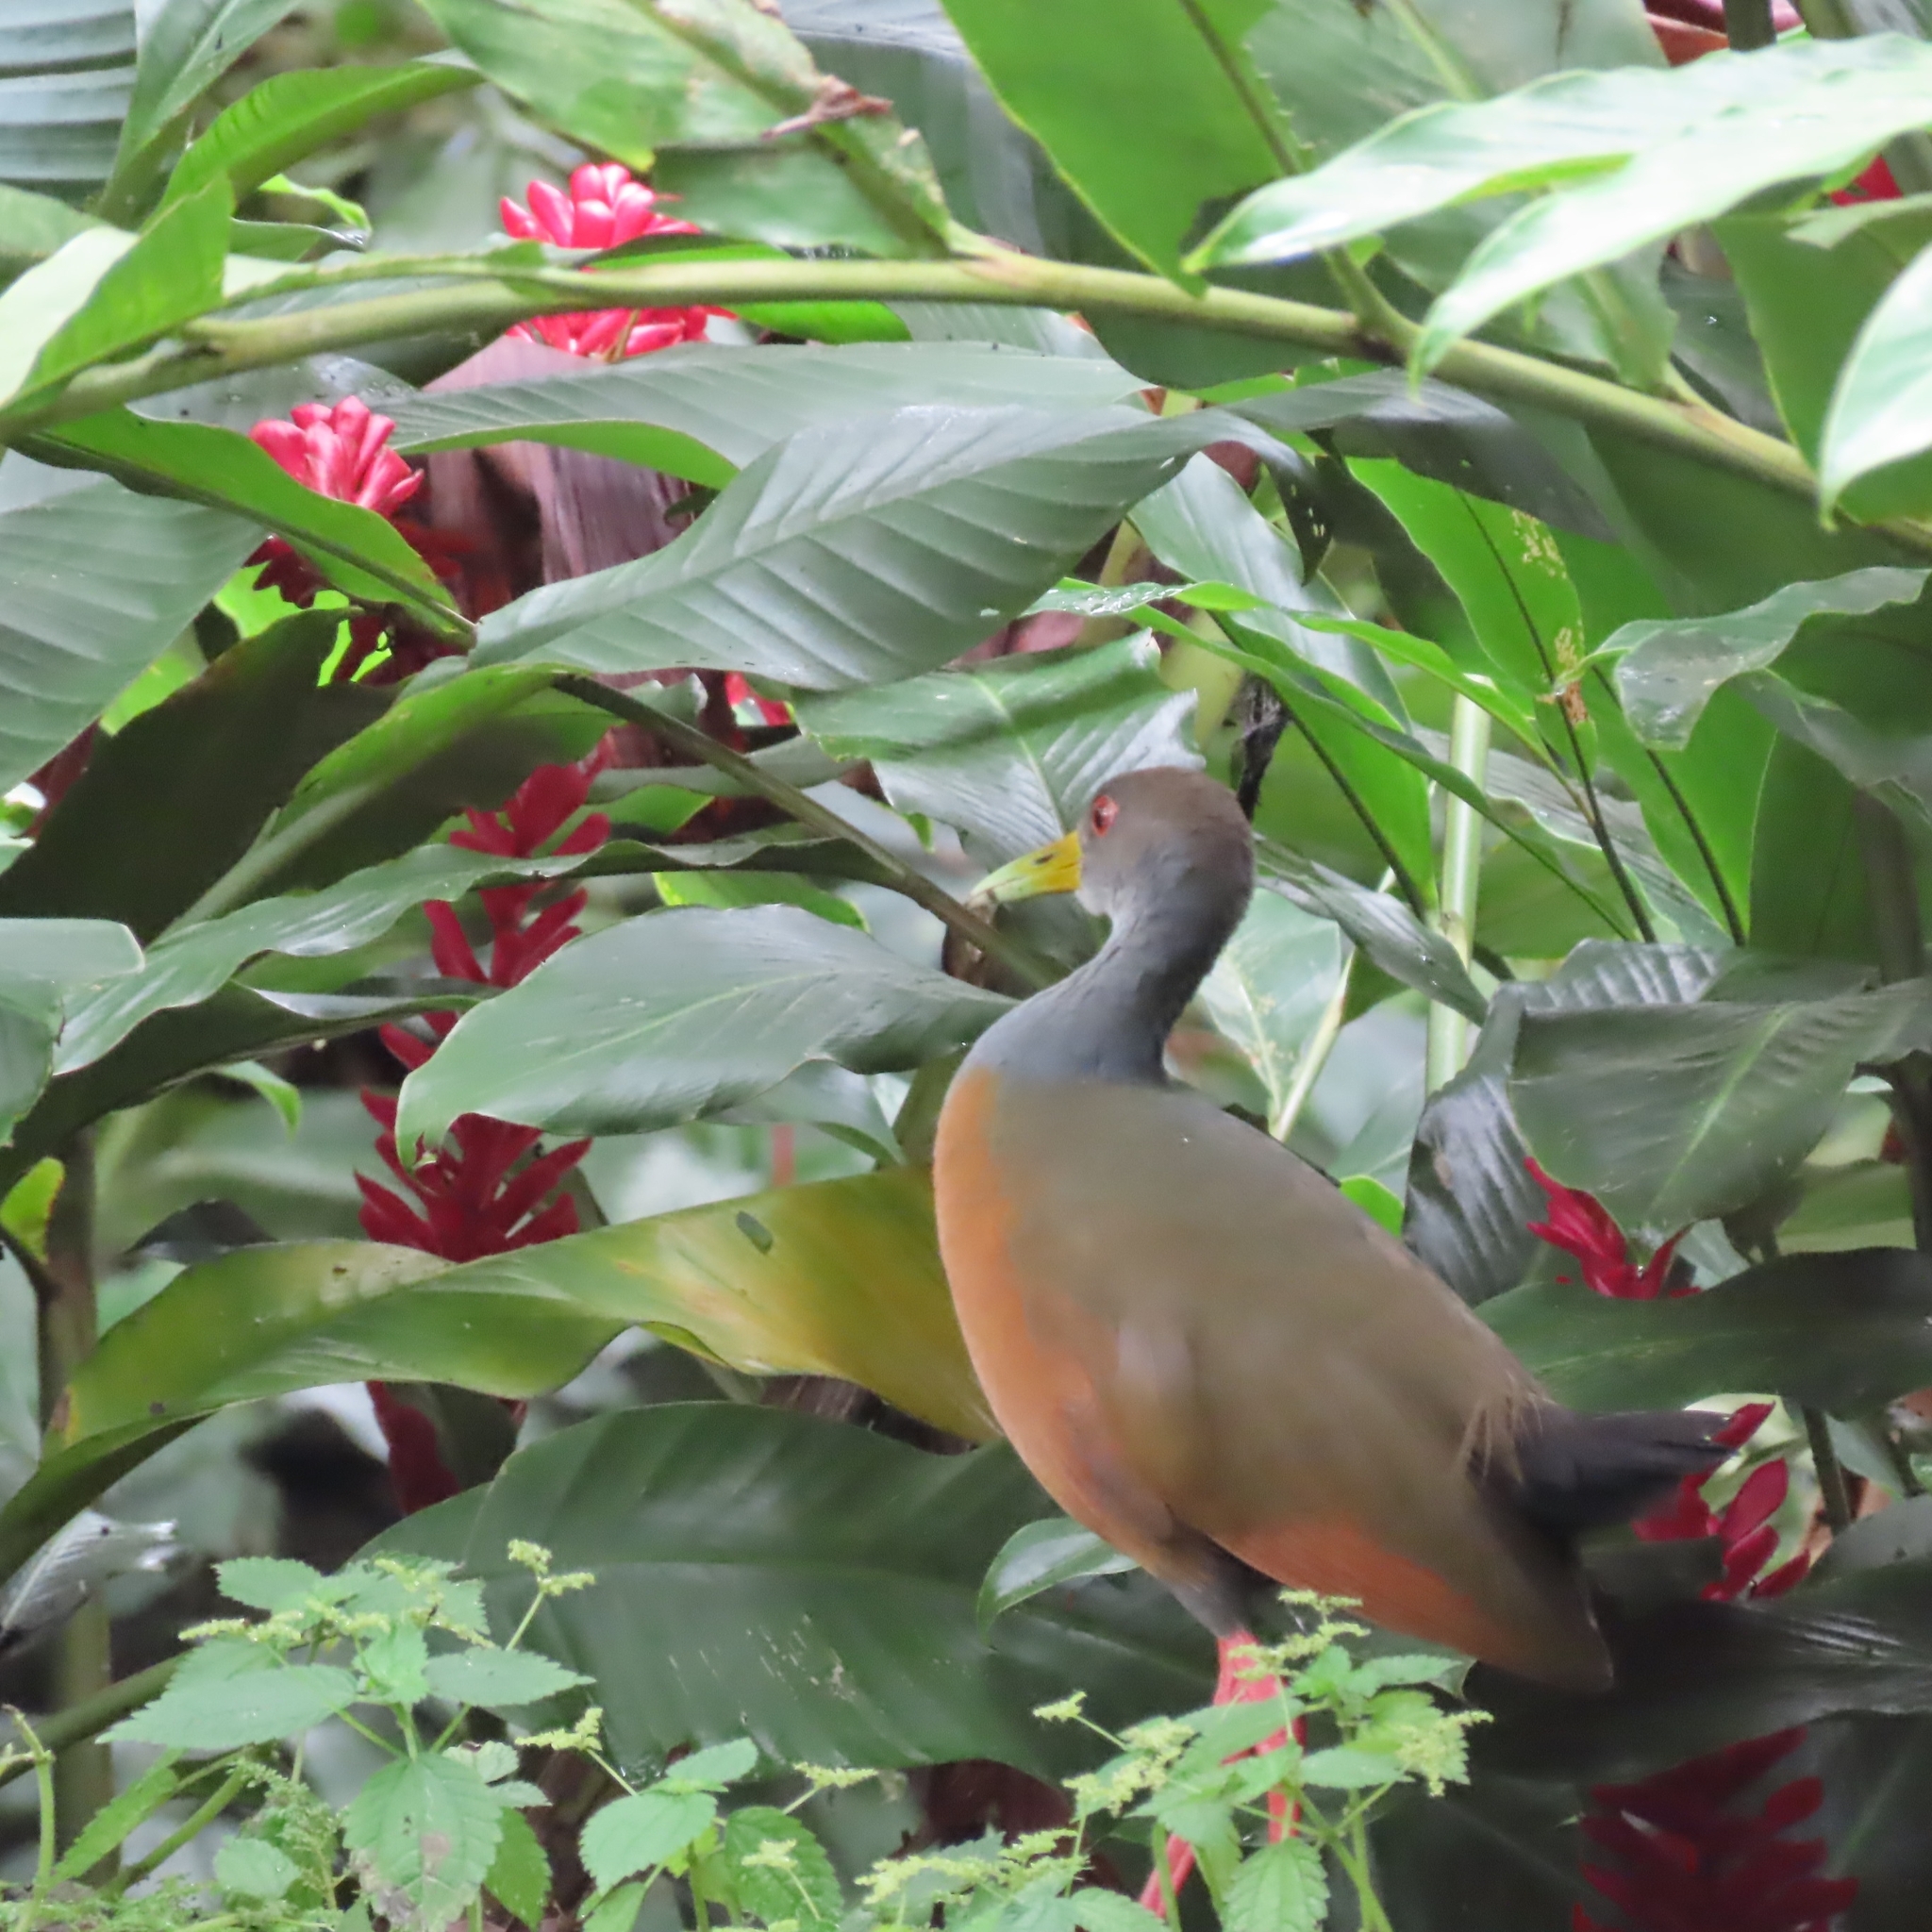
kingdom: Animalia
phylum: Chordata
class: Aves
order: Gruiformes
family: Rallidae
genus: Aramides
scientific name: Aramides cajanea
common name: Gray-necked wood-rail
